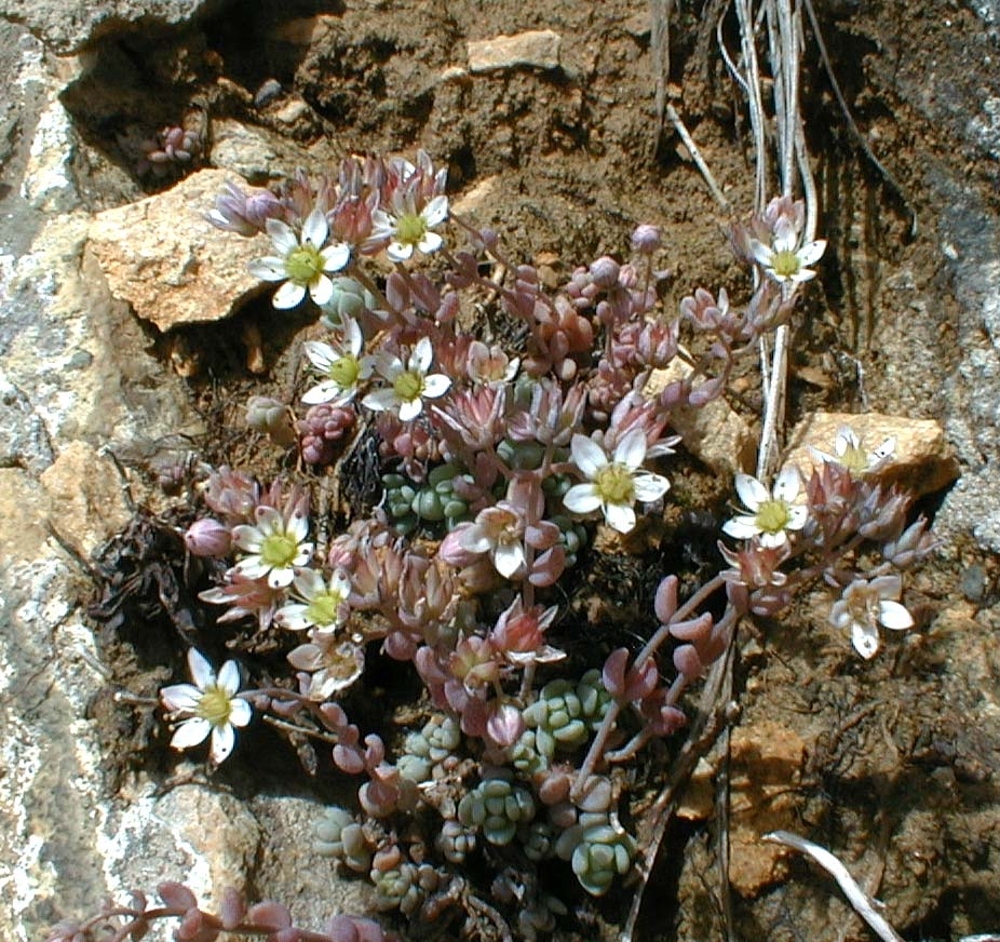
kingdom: Plantae
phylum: Tracheophyta
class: Magnoliopsida
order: Saxifragales
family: Crassulaceae
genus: Sedum
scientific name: Sedum dasyphyllum
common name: Thick-leaf stonecrop
